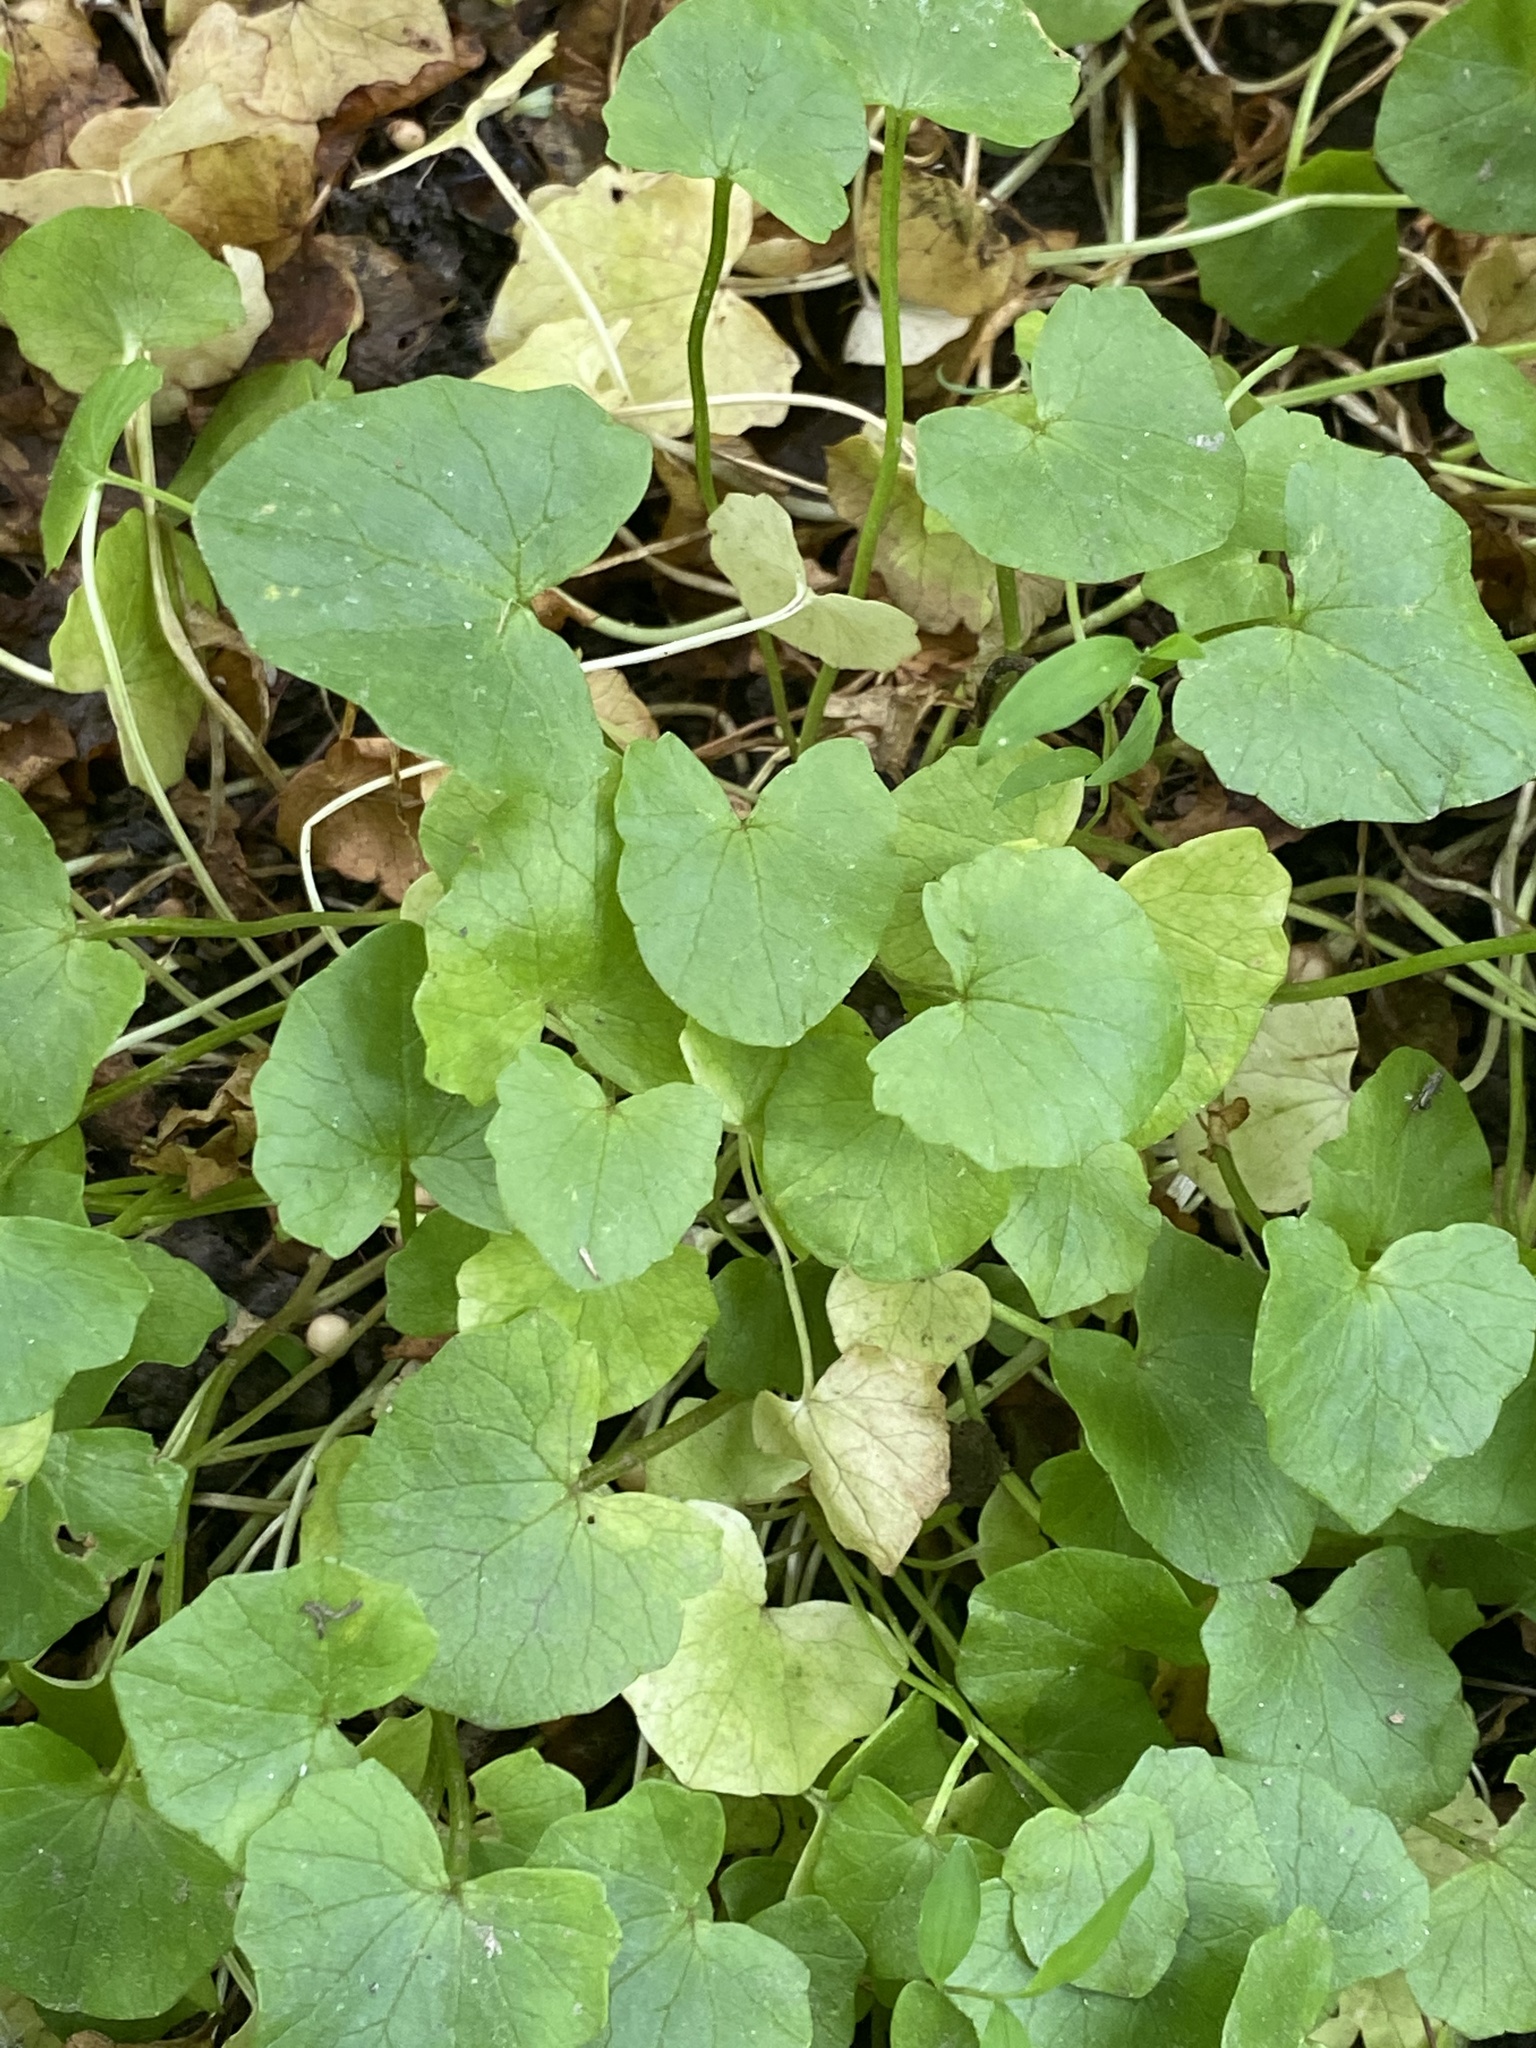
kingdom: Plantae
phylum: Tracheophyta
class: Magnoliopsida
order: Ranunculales
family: Ranunculaceae
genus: Ficaria
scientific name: Ficaria verna
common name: Lesser celandine
